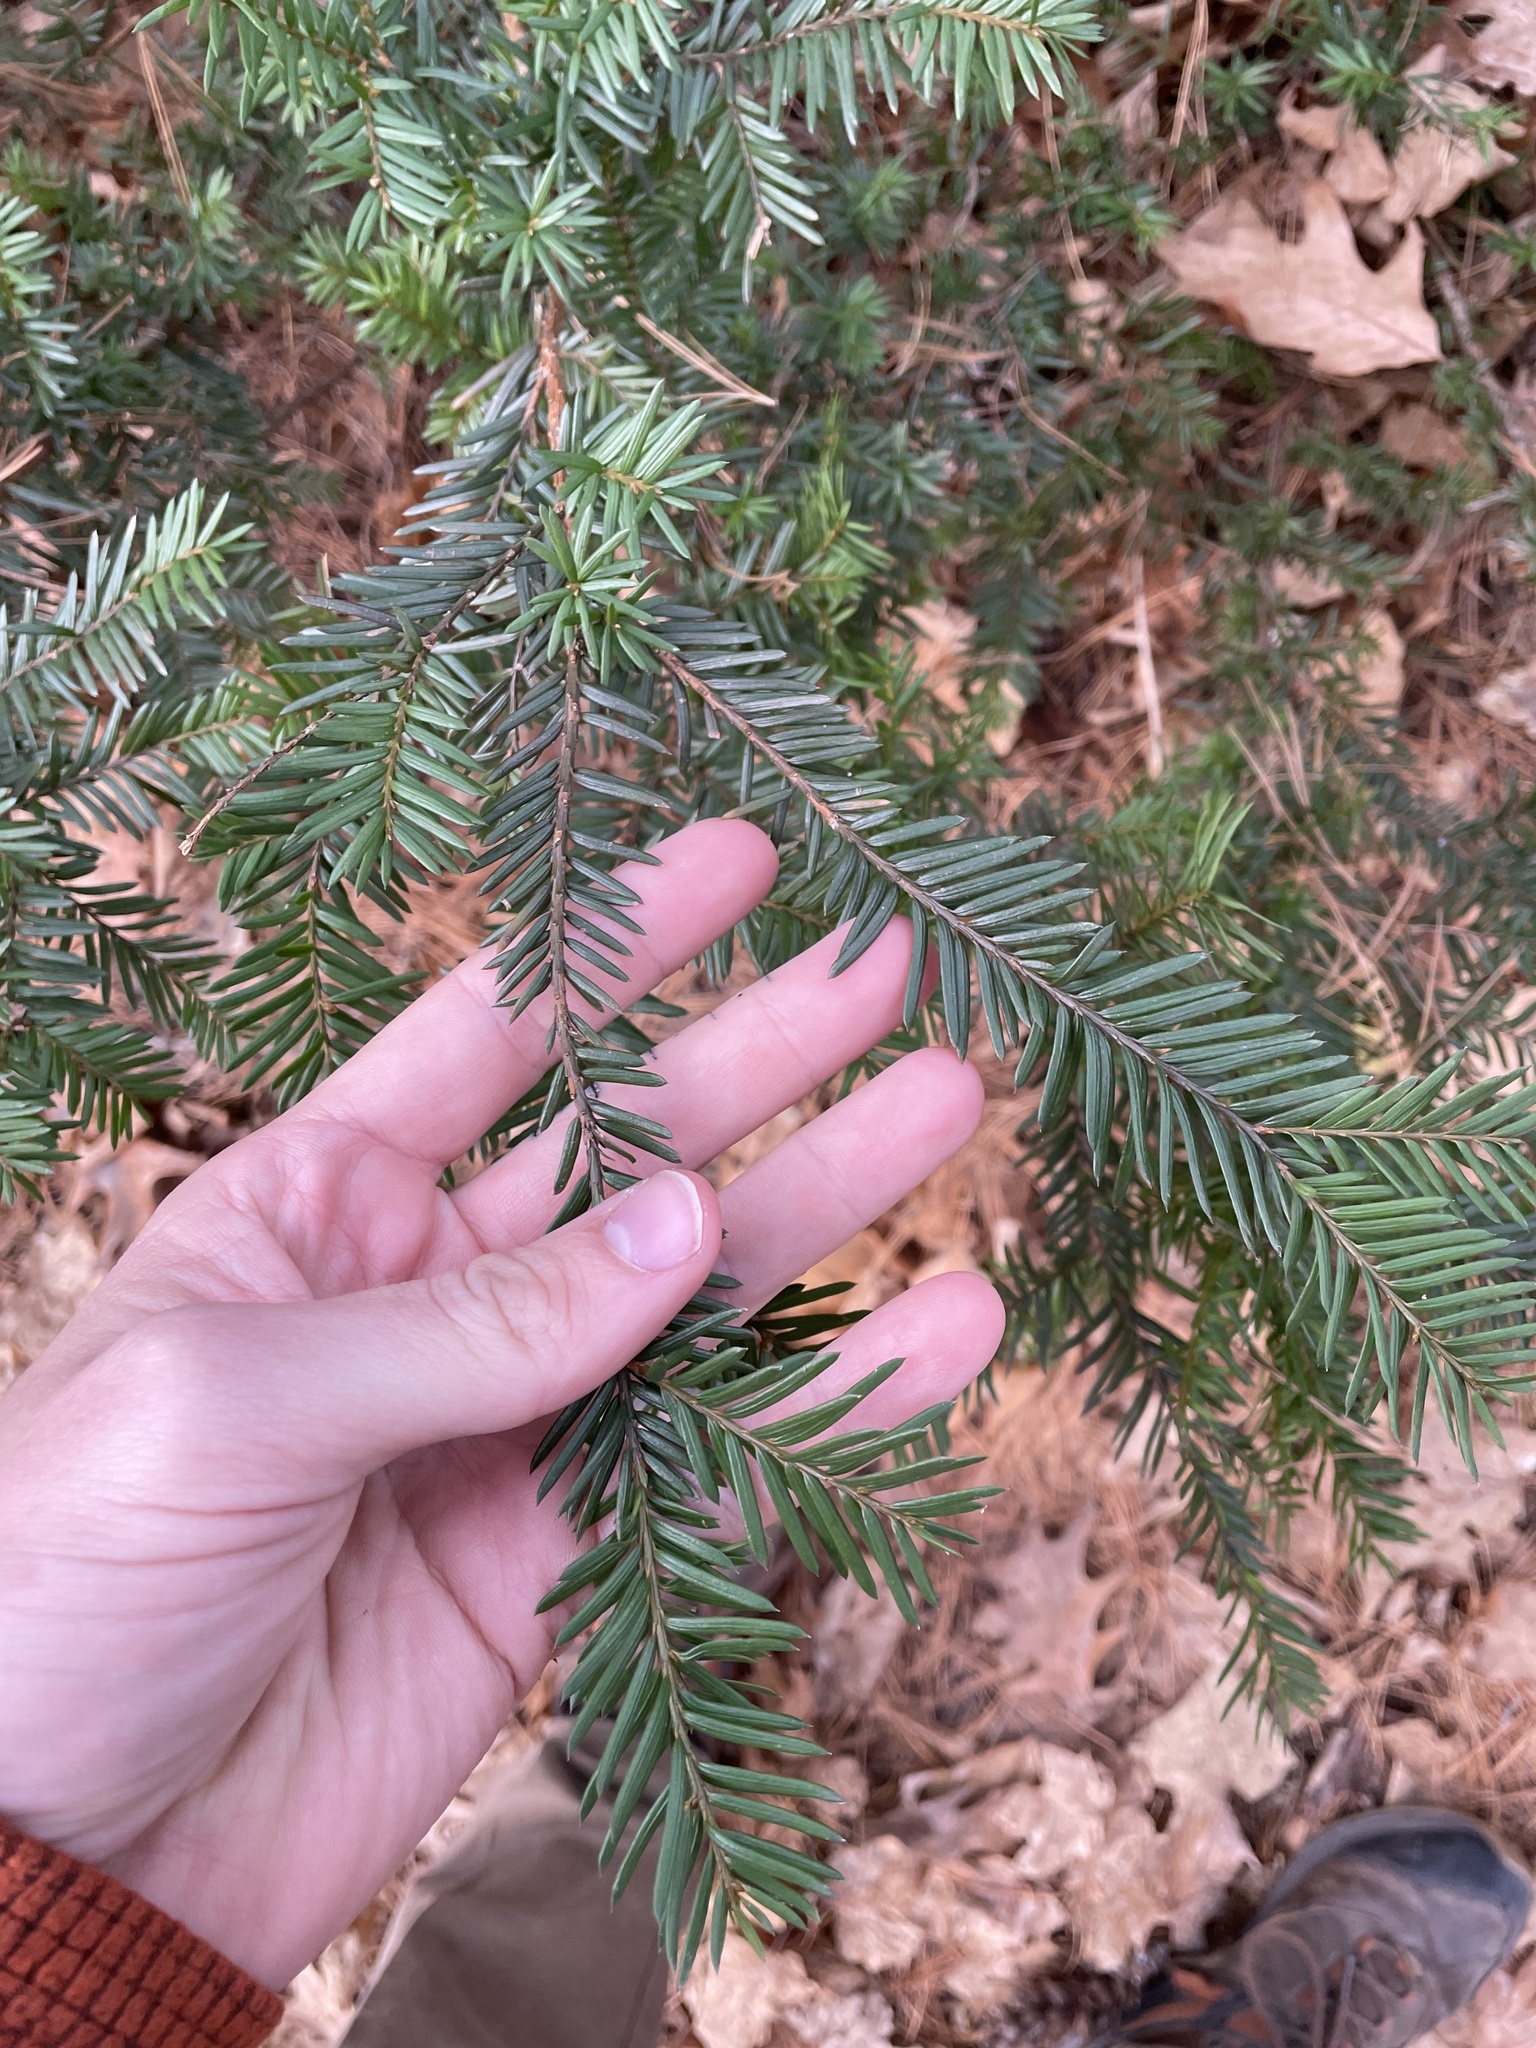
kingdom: Plantae
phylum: Tracheophyta
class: Pinopsida
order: Pinales
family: Taxaceae
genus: Taxus
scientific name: Taxus canadensis
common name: American yew
